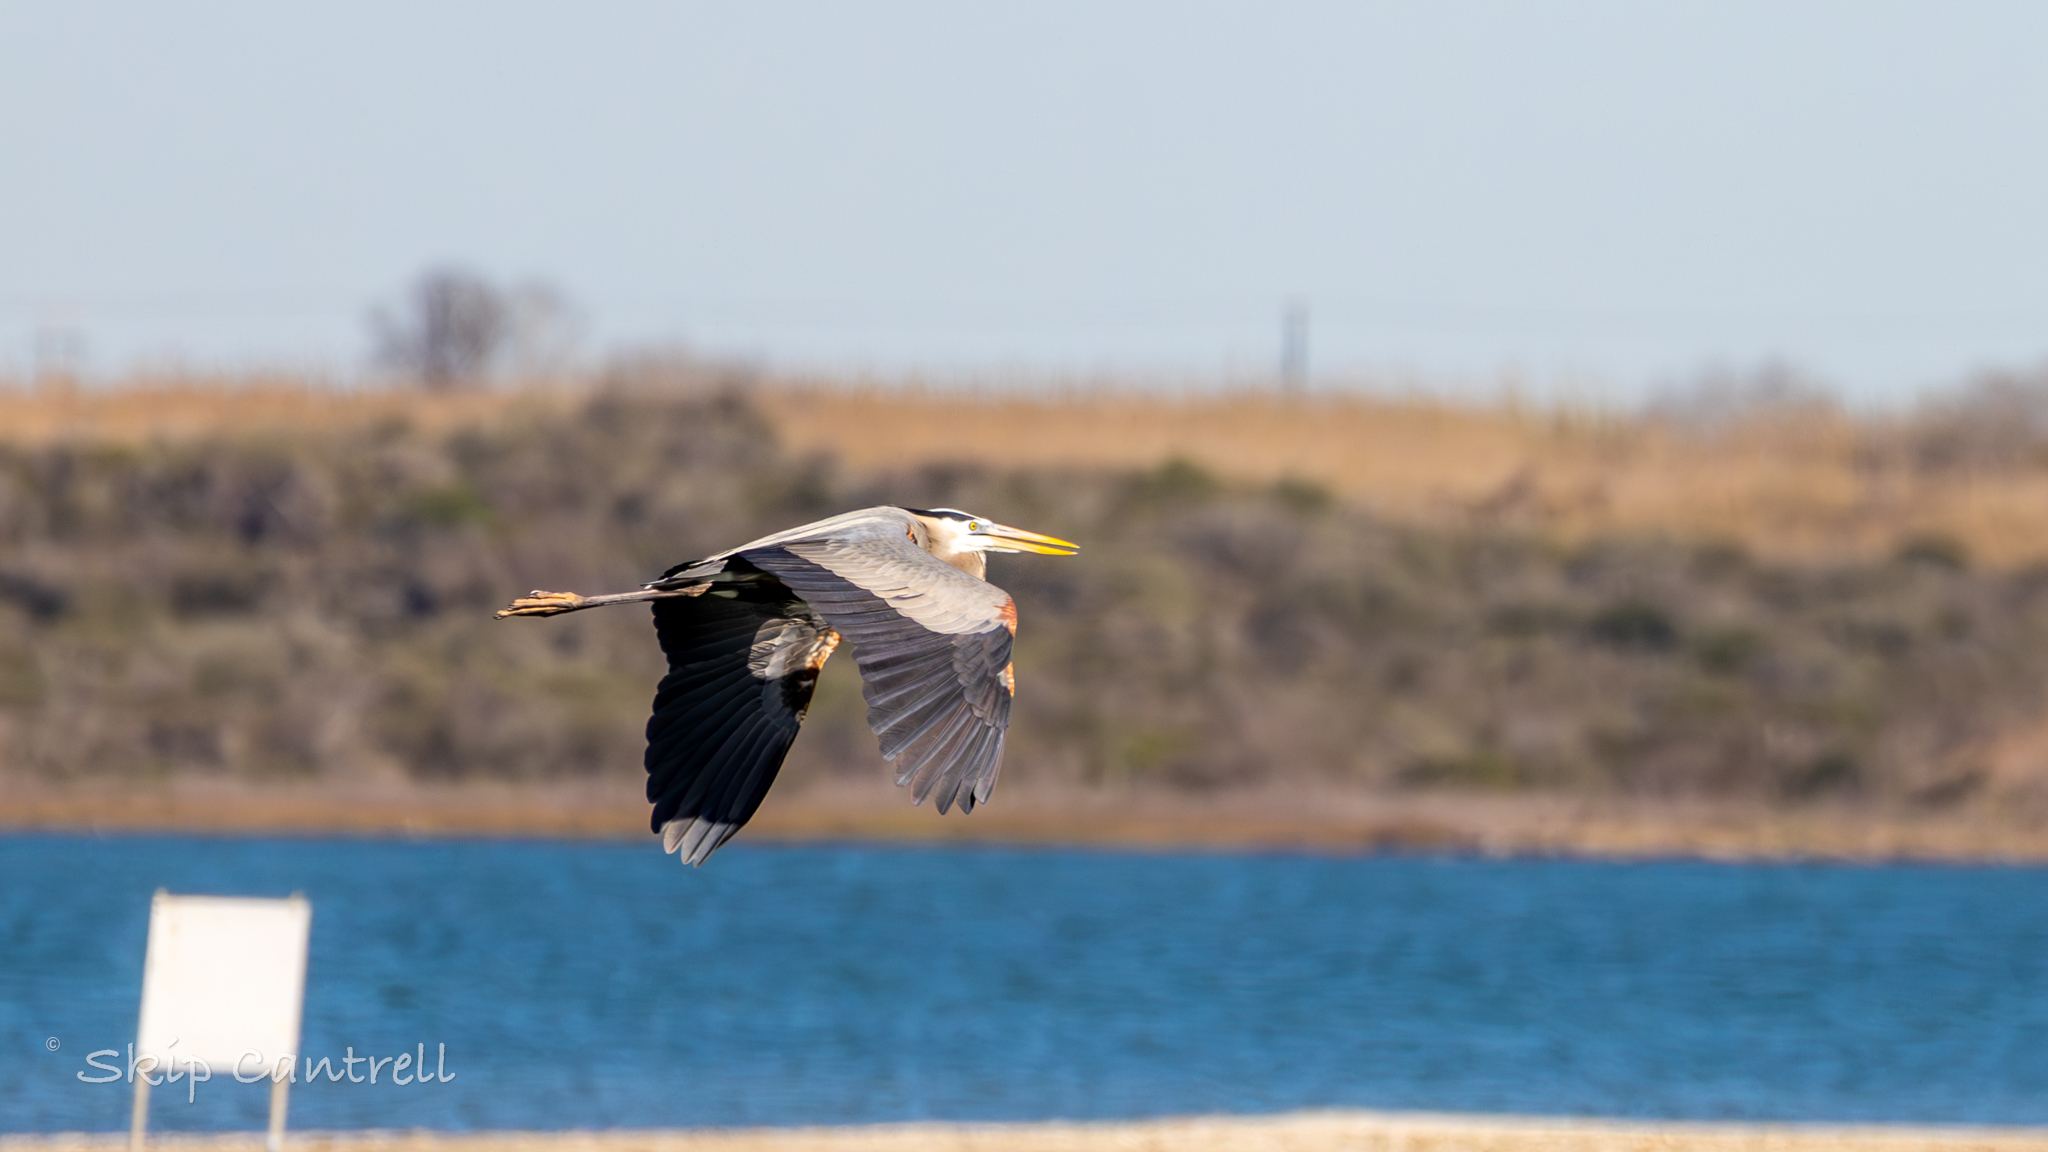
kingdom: Animalia
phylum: Chordata
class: Aves
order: Pelecaniformes
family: Ardeidae
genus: Ardea
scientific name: Ardea herodias
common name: Great blue heron
